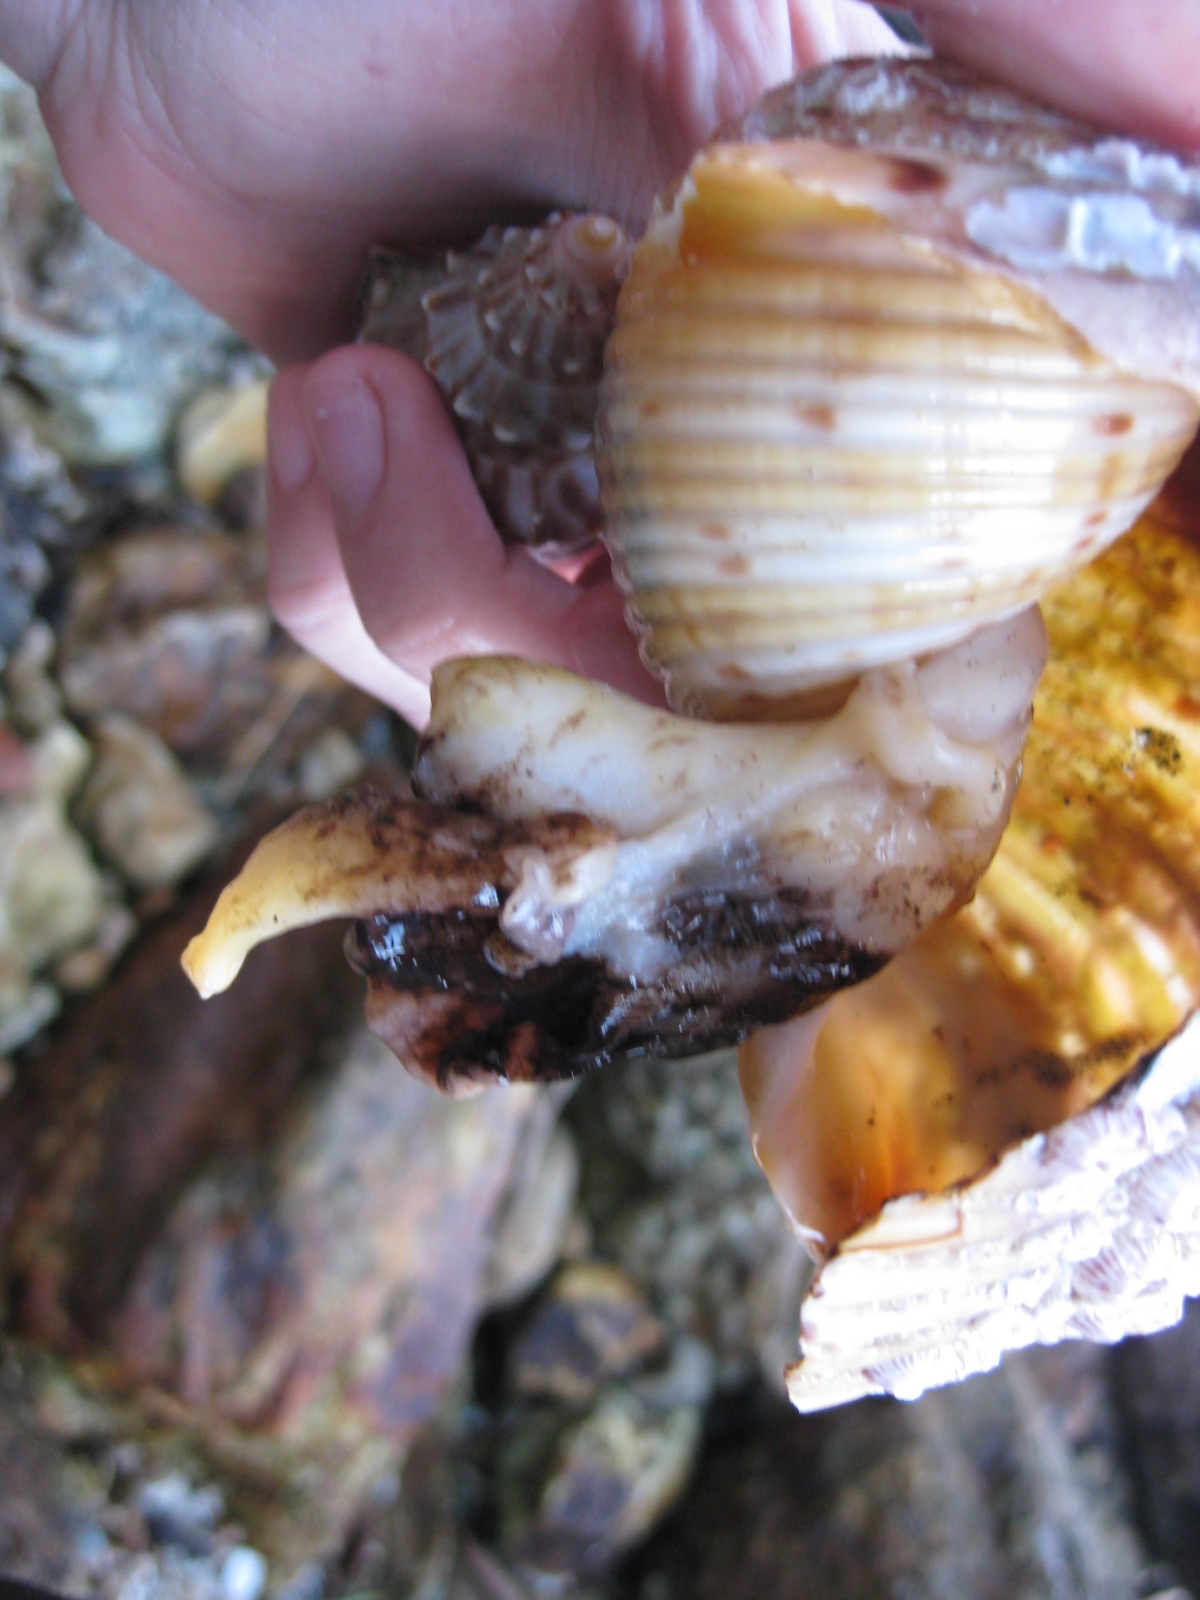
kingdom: Animalia
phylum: Mollusca
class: Gastropoda
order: Littorinimorpha
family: Tonnidae
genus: Tonna
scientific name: Tonna tankervillii
